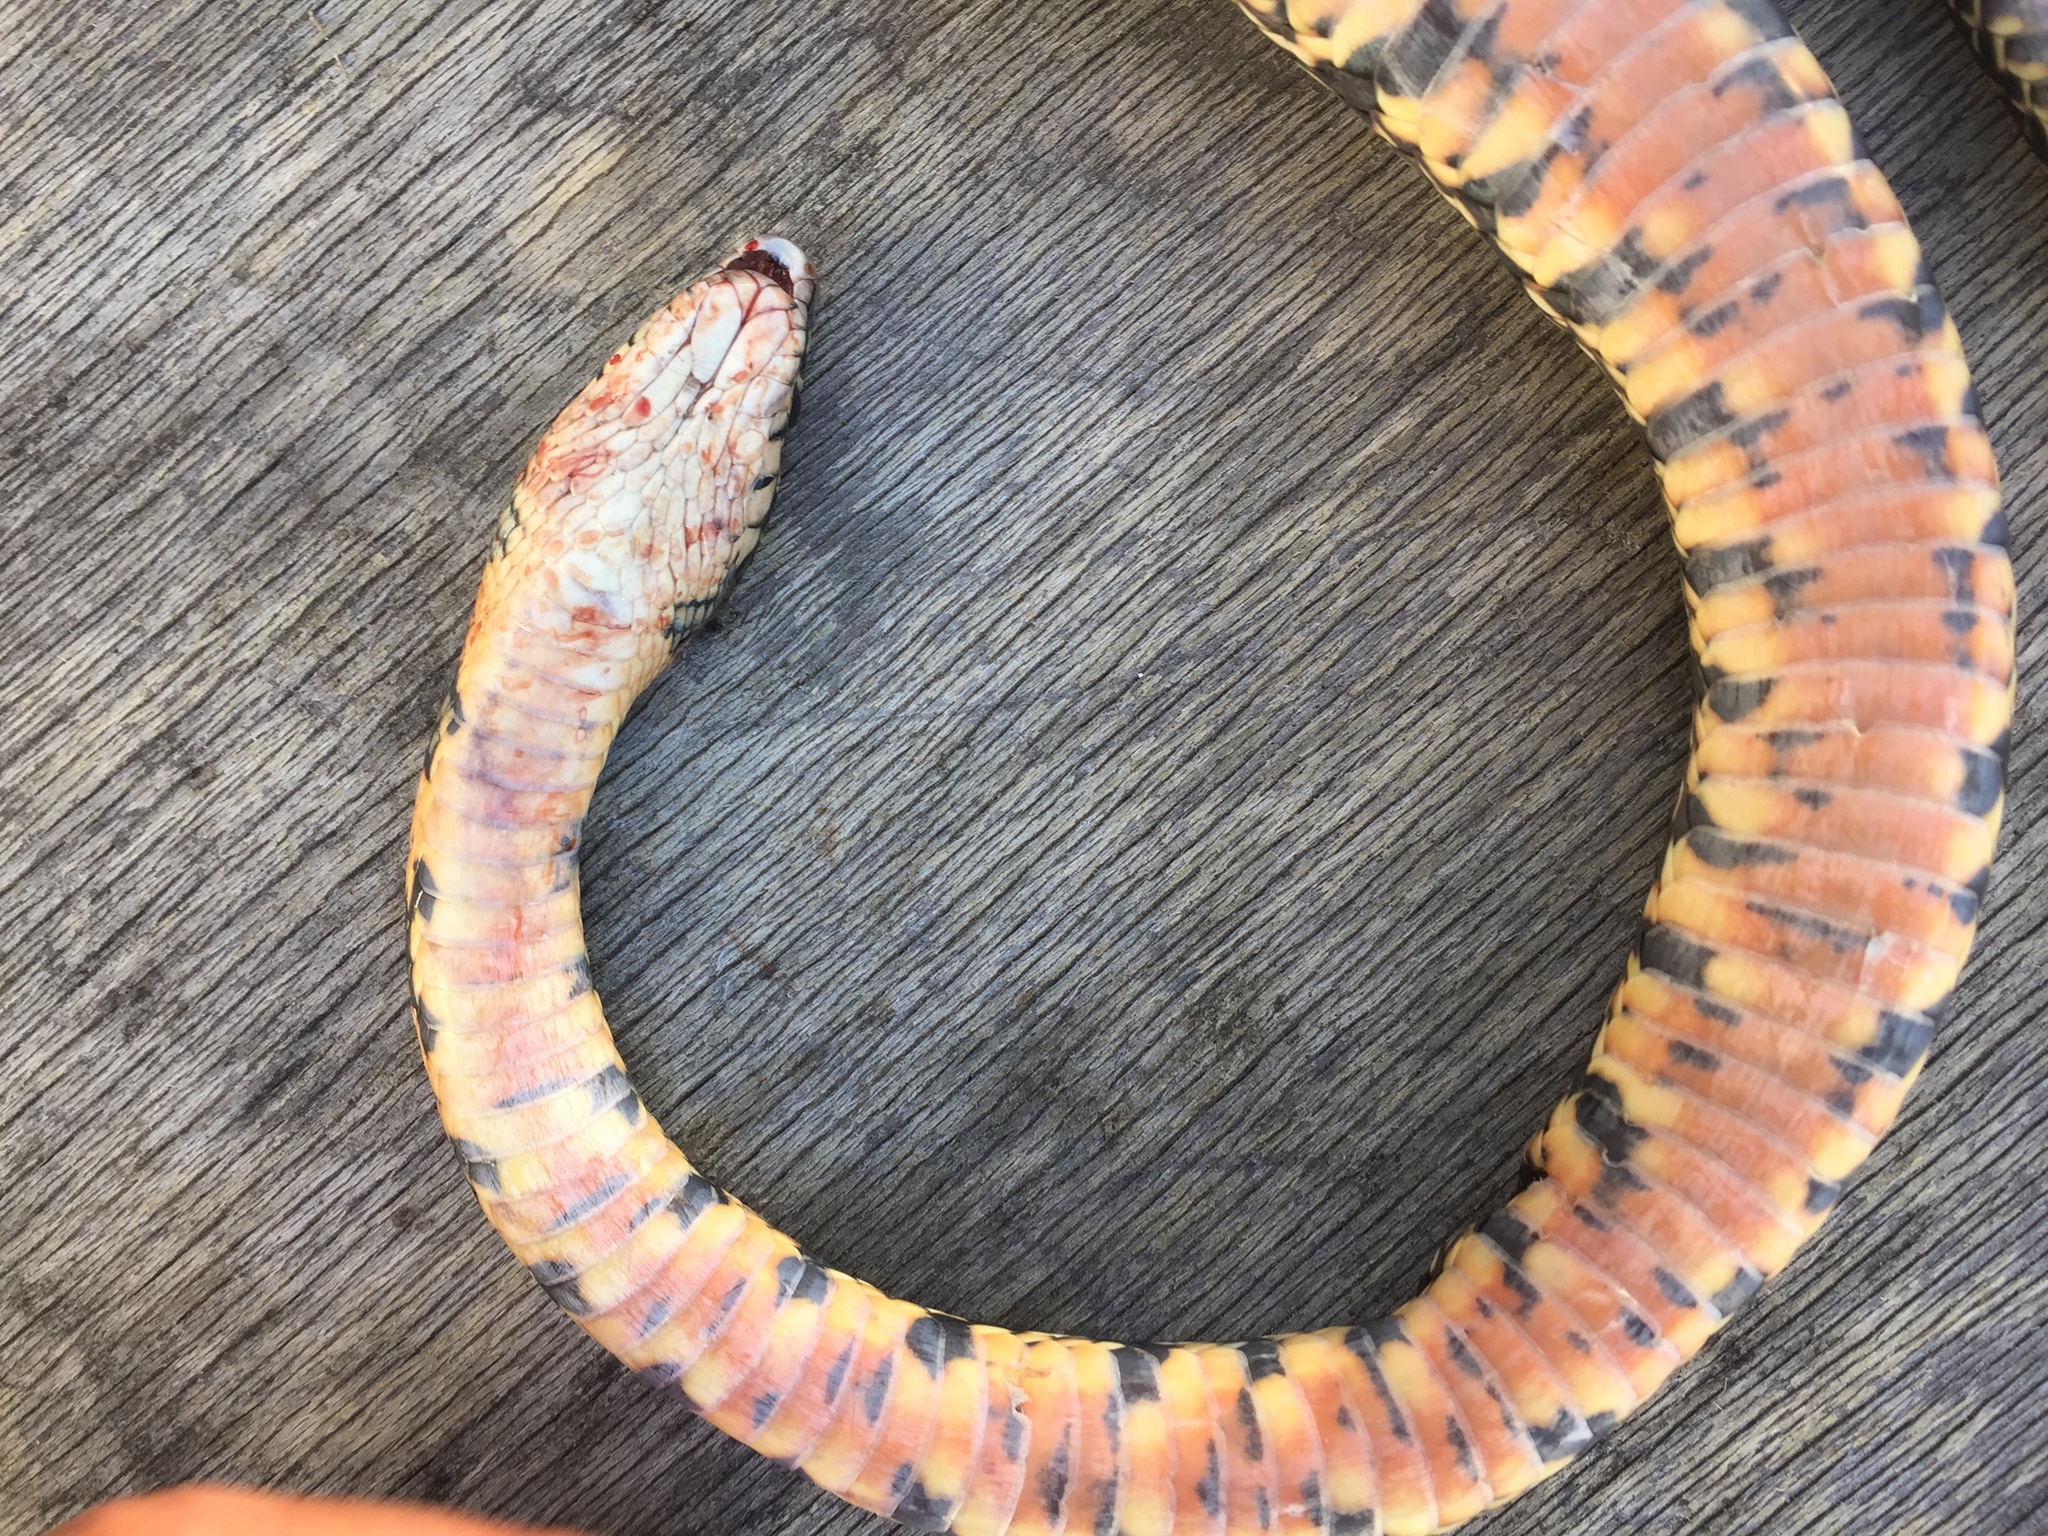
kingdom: Animalia
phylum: Chordata
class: Squamata
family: Colubridae
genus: Hemorrhois
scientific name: Hemorrhois hippocrepis
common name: Horseshoe whip snake
